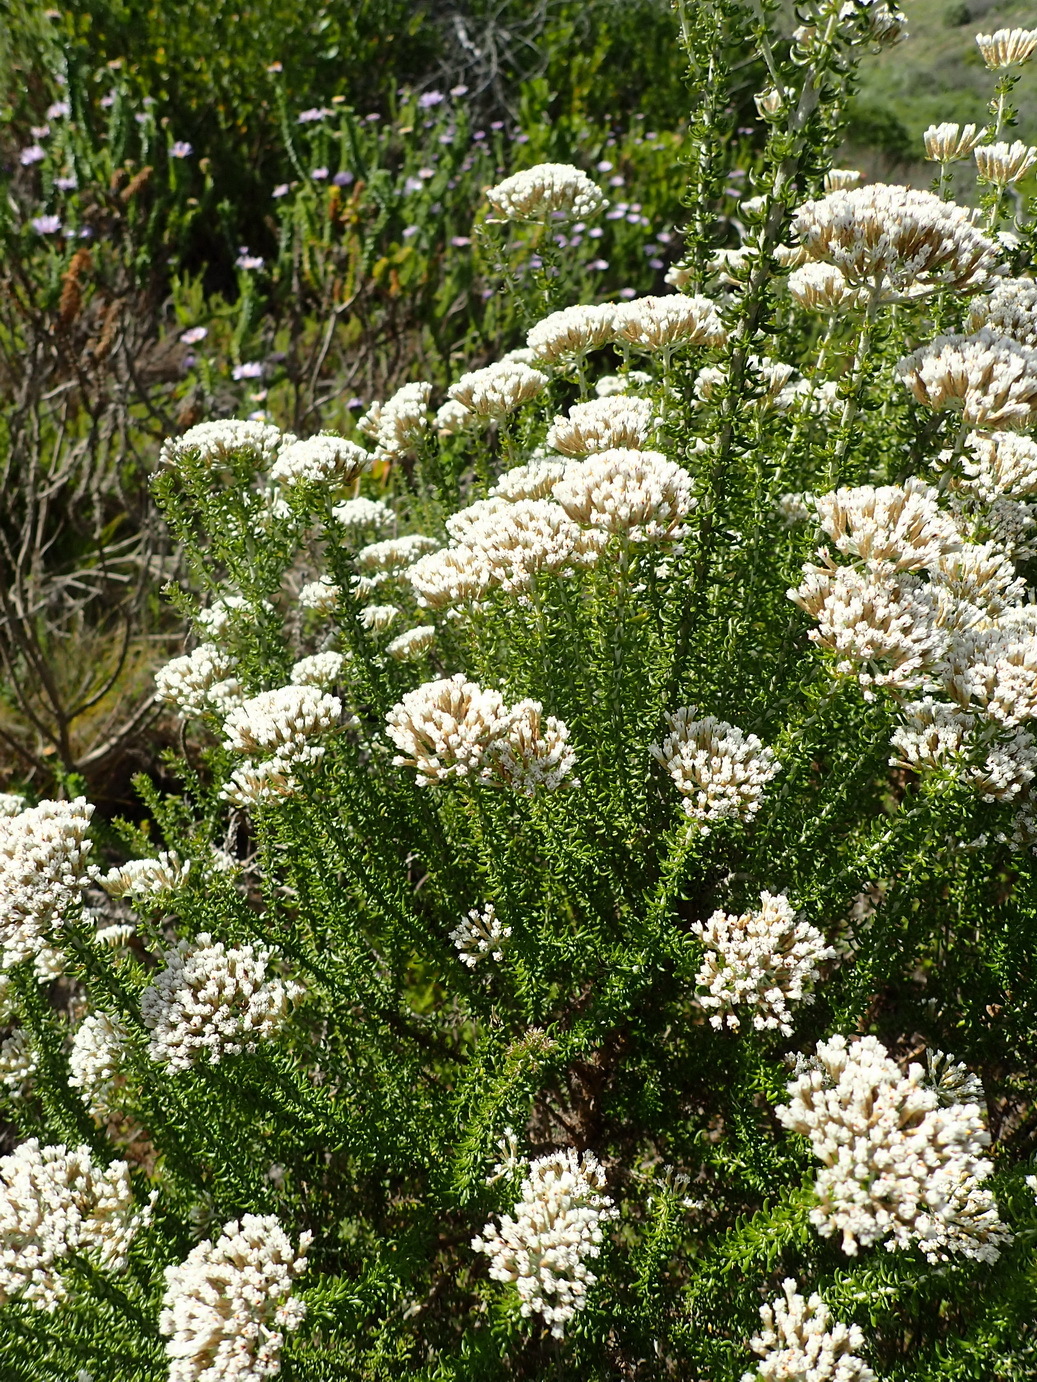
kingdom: Plantae
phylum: Tracheophyta
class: Magnoliopsida
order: Asterales
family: Asteraceae
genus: Metalasia
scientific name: Metalasia muricata
